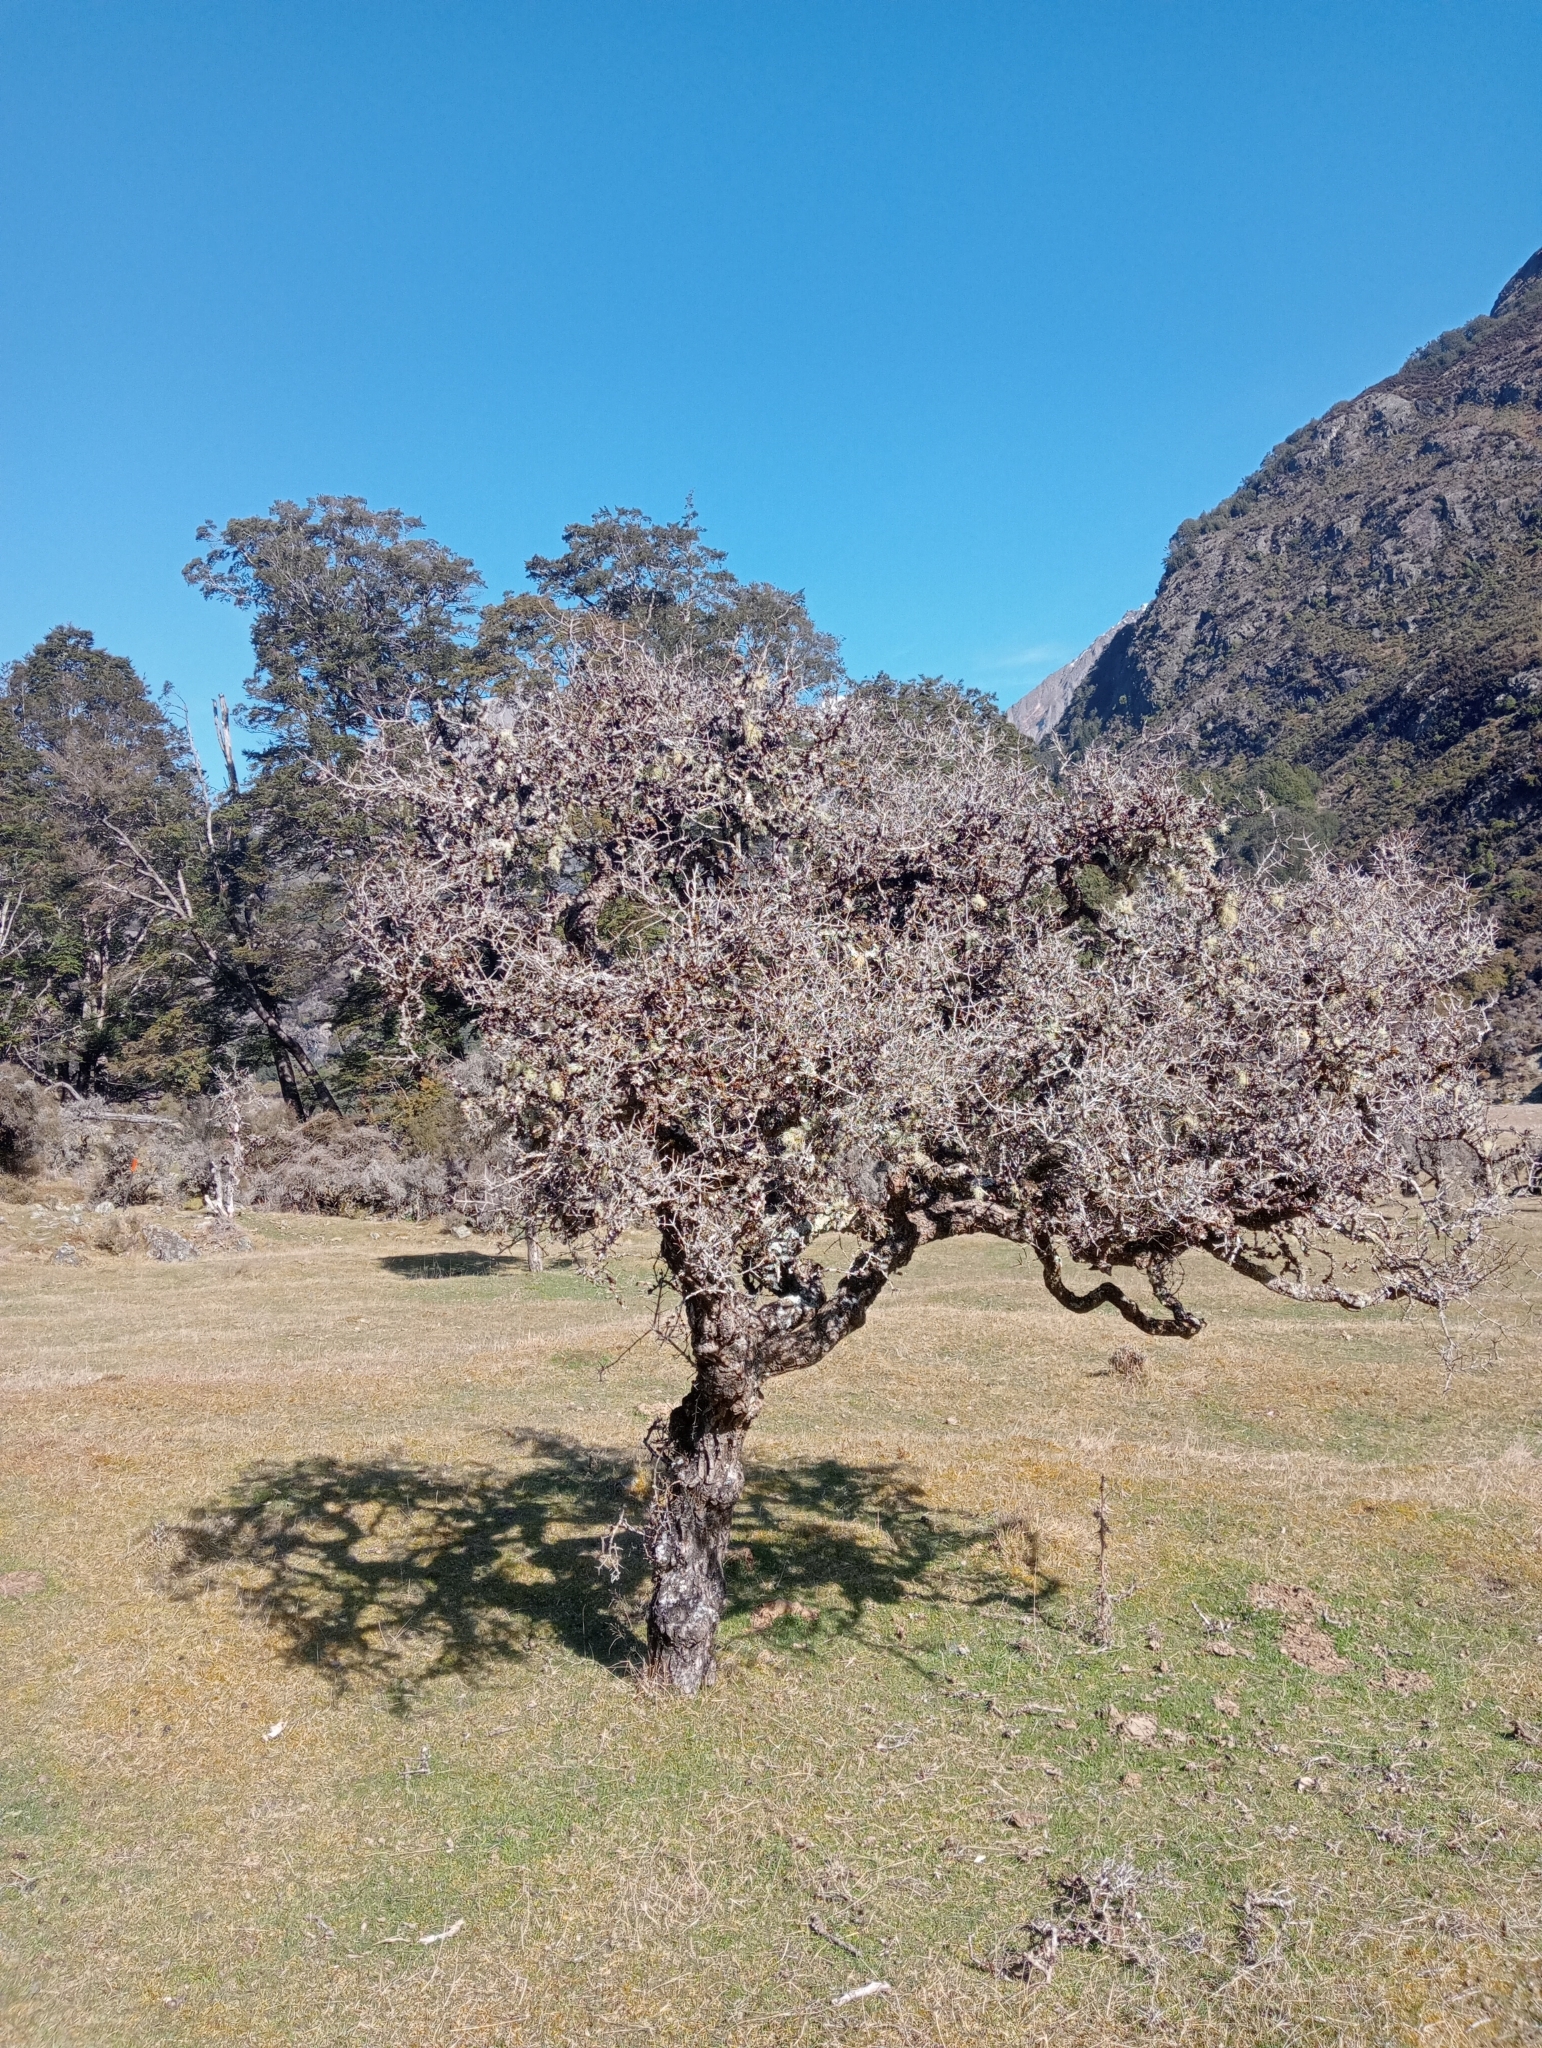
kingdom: Plantae
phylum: Tracheophyta
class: Magnoliopsida
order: Rosales
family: Rhamnaceae
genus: Discaria
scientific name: Discaria toumatou
